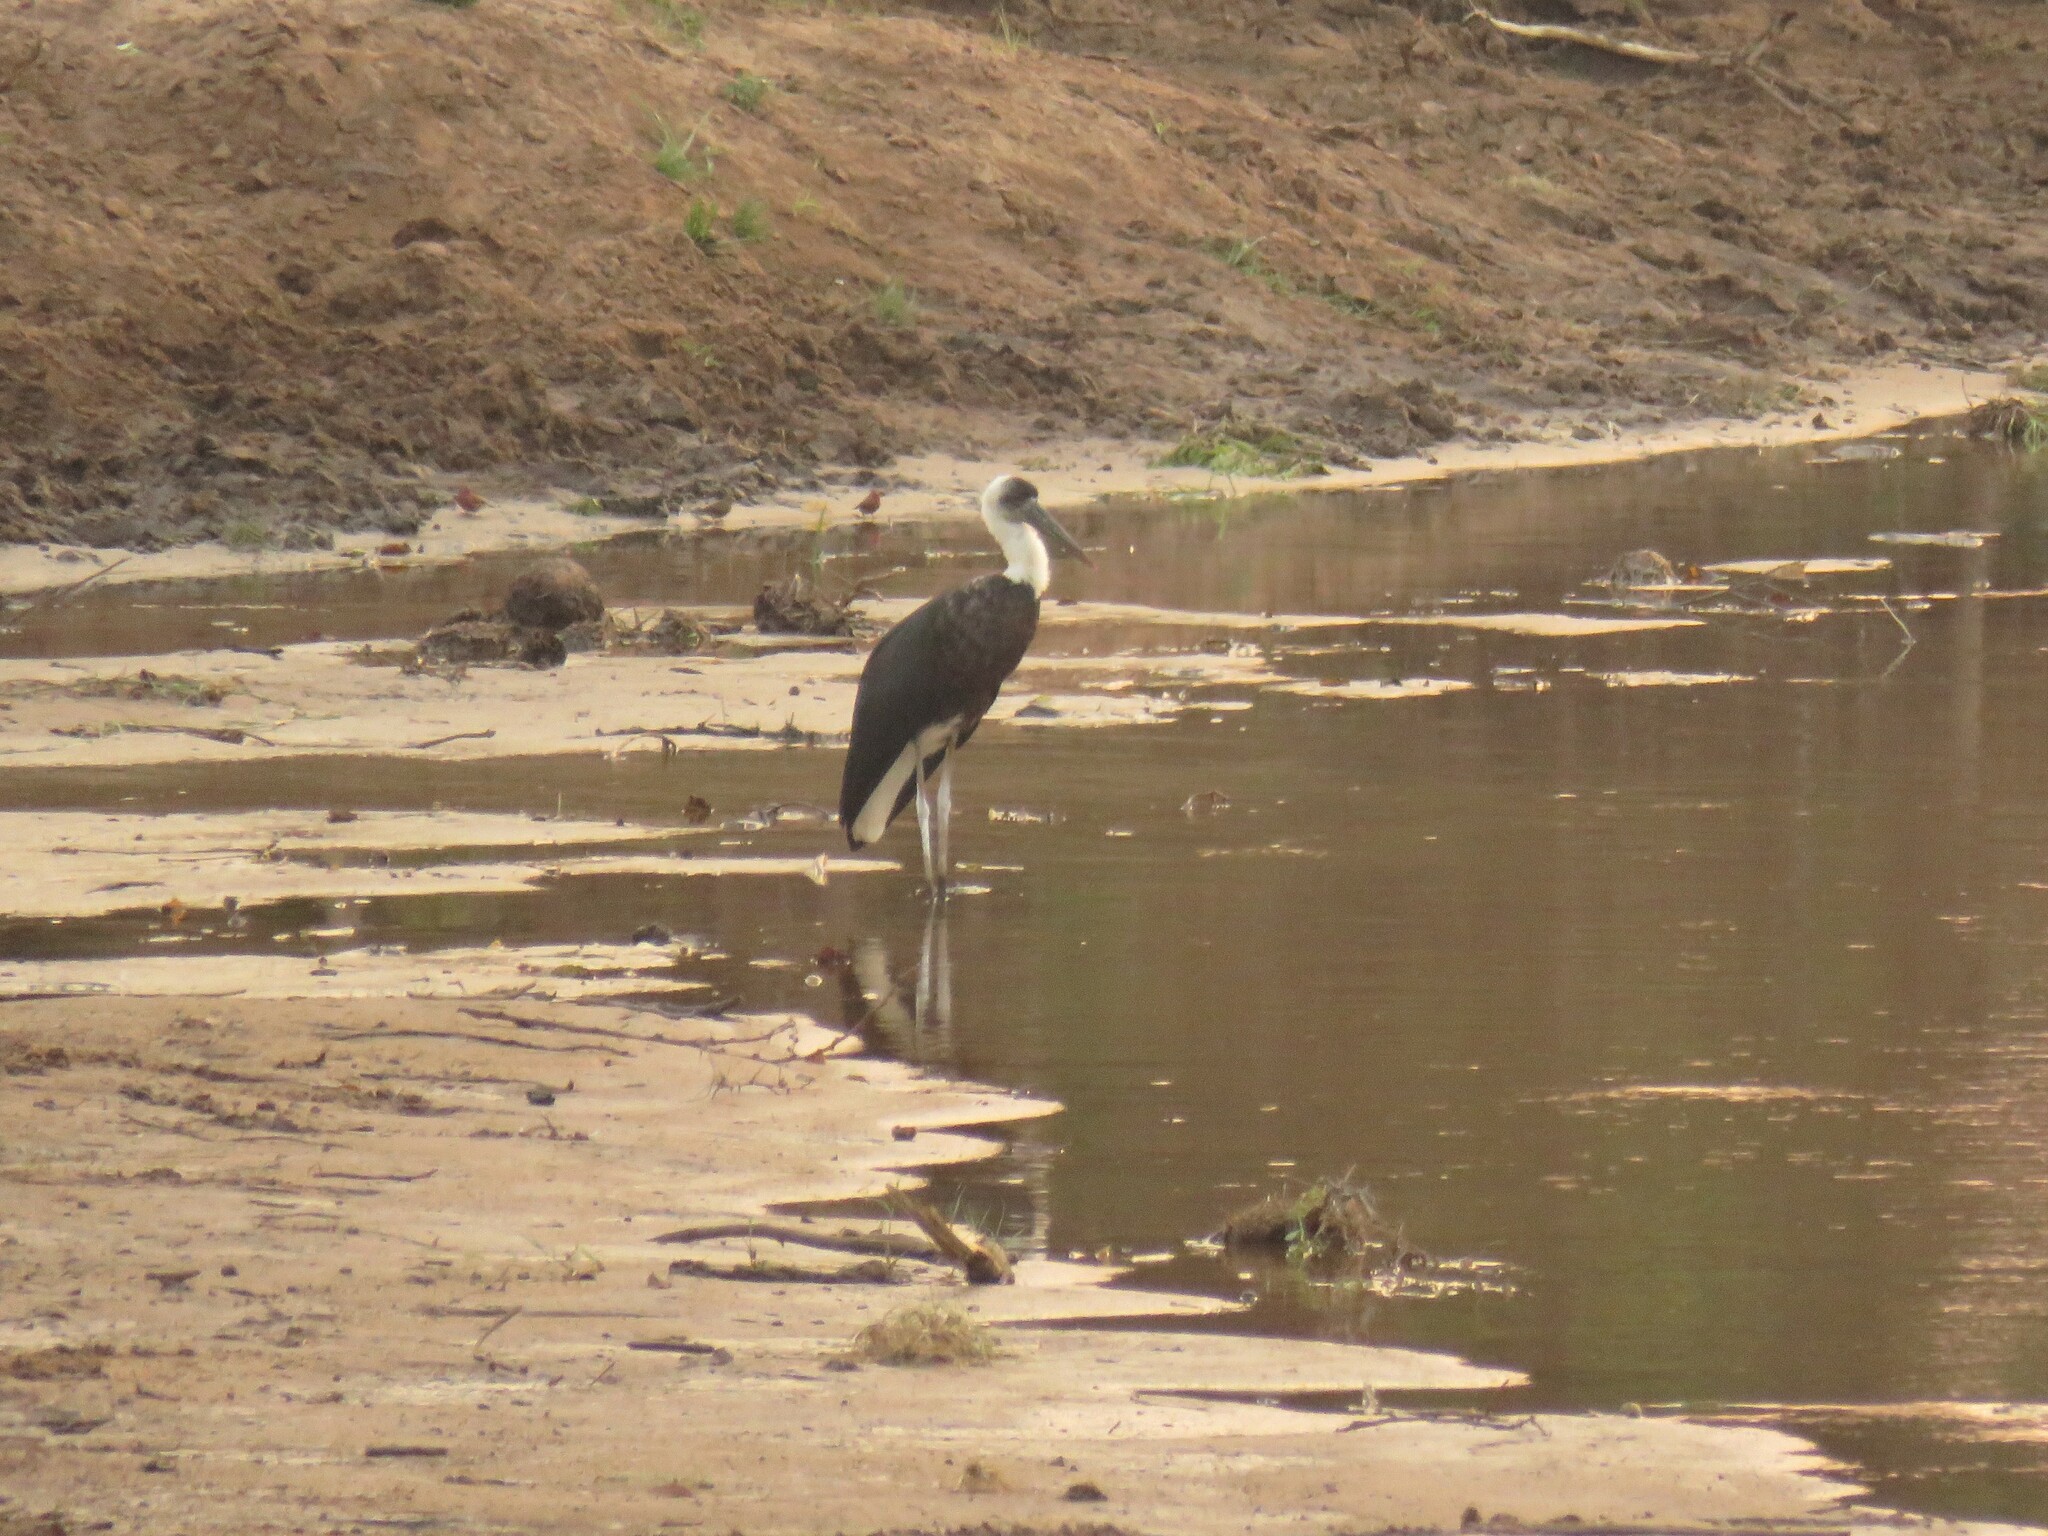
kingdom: Animalia
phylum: Chordata
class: Aves
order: Ciconiiformes
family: Ciconiidae
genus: Ciconia
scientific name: Ciconia microscelis
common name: African woollyneck
